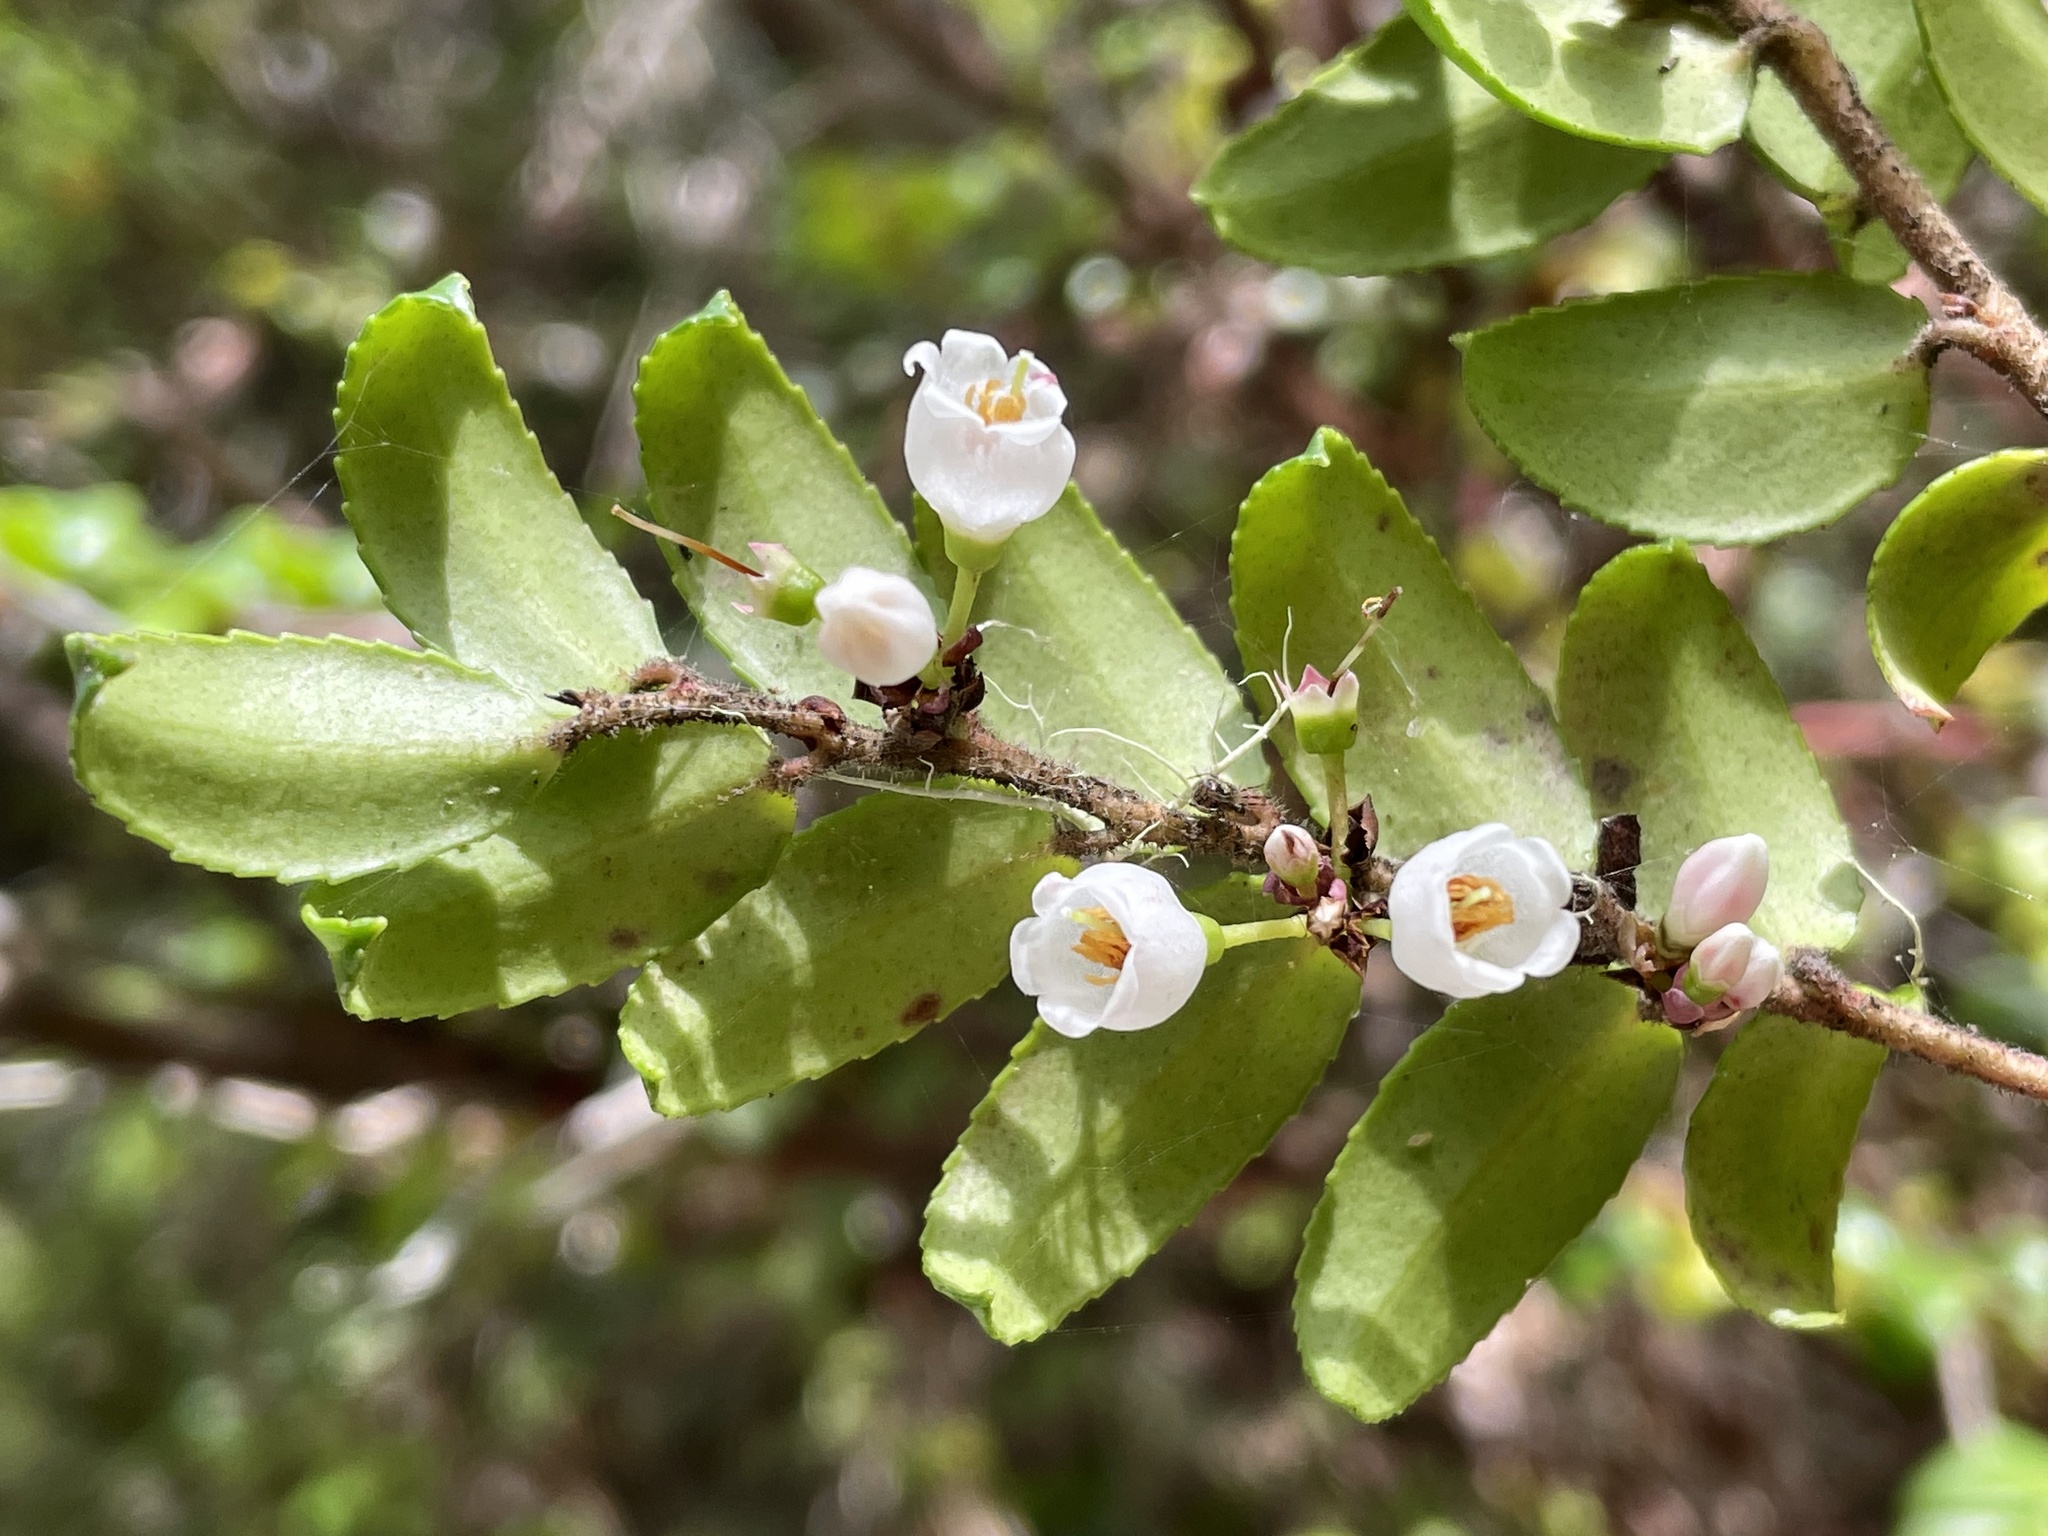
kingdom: Plantae
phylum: Tracheophyta
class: Magnoliopsida
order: Ericales
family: Ericaceae
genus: Vaccinium
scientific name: Vaccinium ovatum
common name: California-huckleberry
